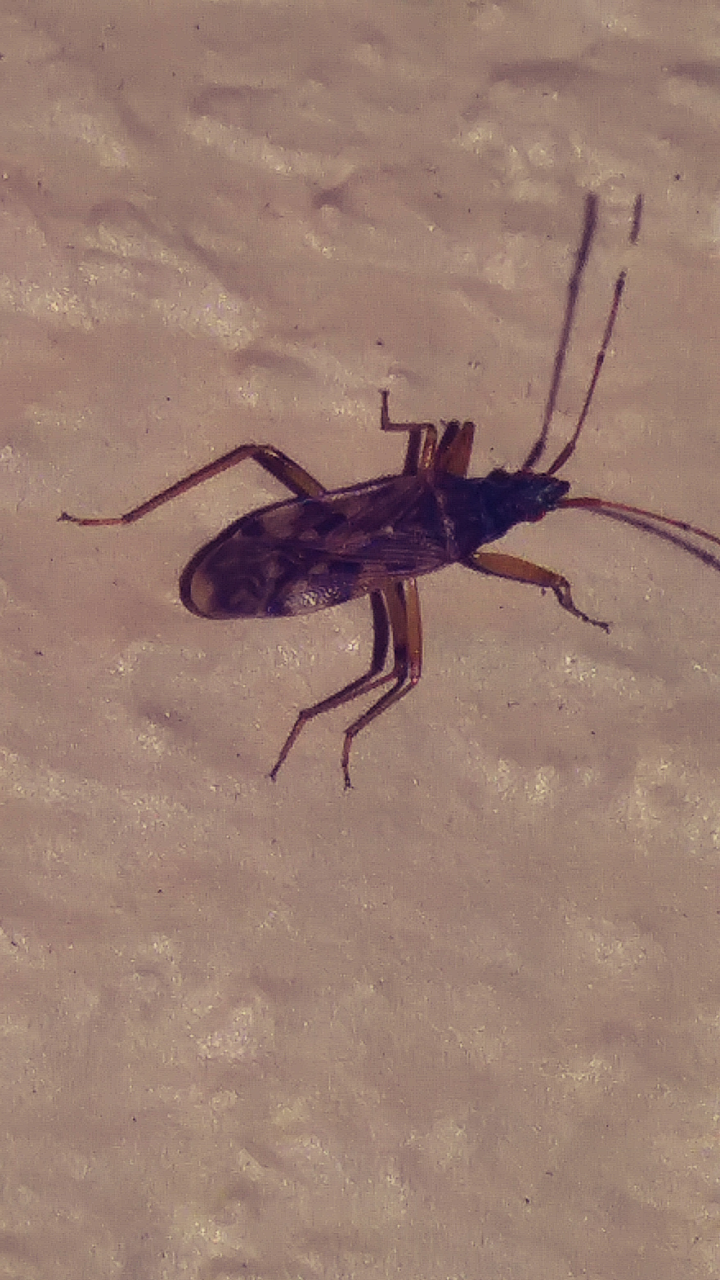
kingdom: Animalia
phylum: Arthropoda
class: Insecta
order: Hemiptera
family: Rhyparochromidae
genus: Ozophora
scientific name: Ozophora picturata
